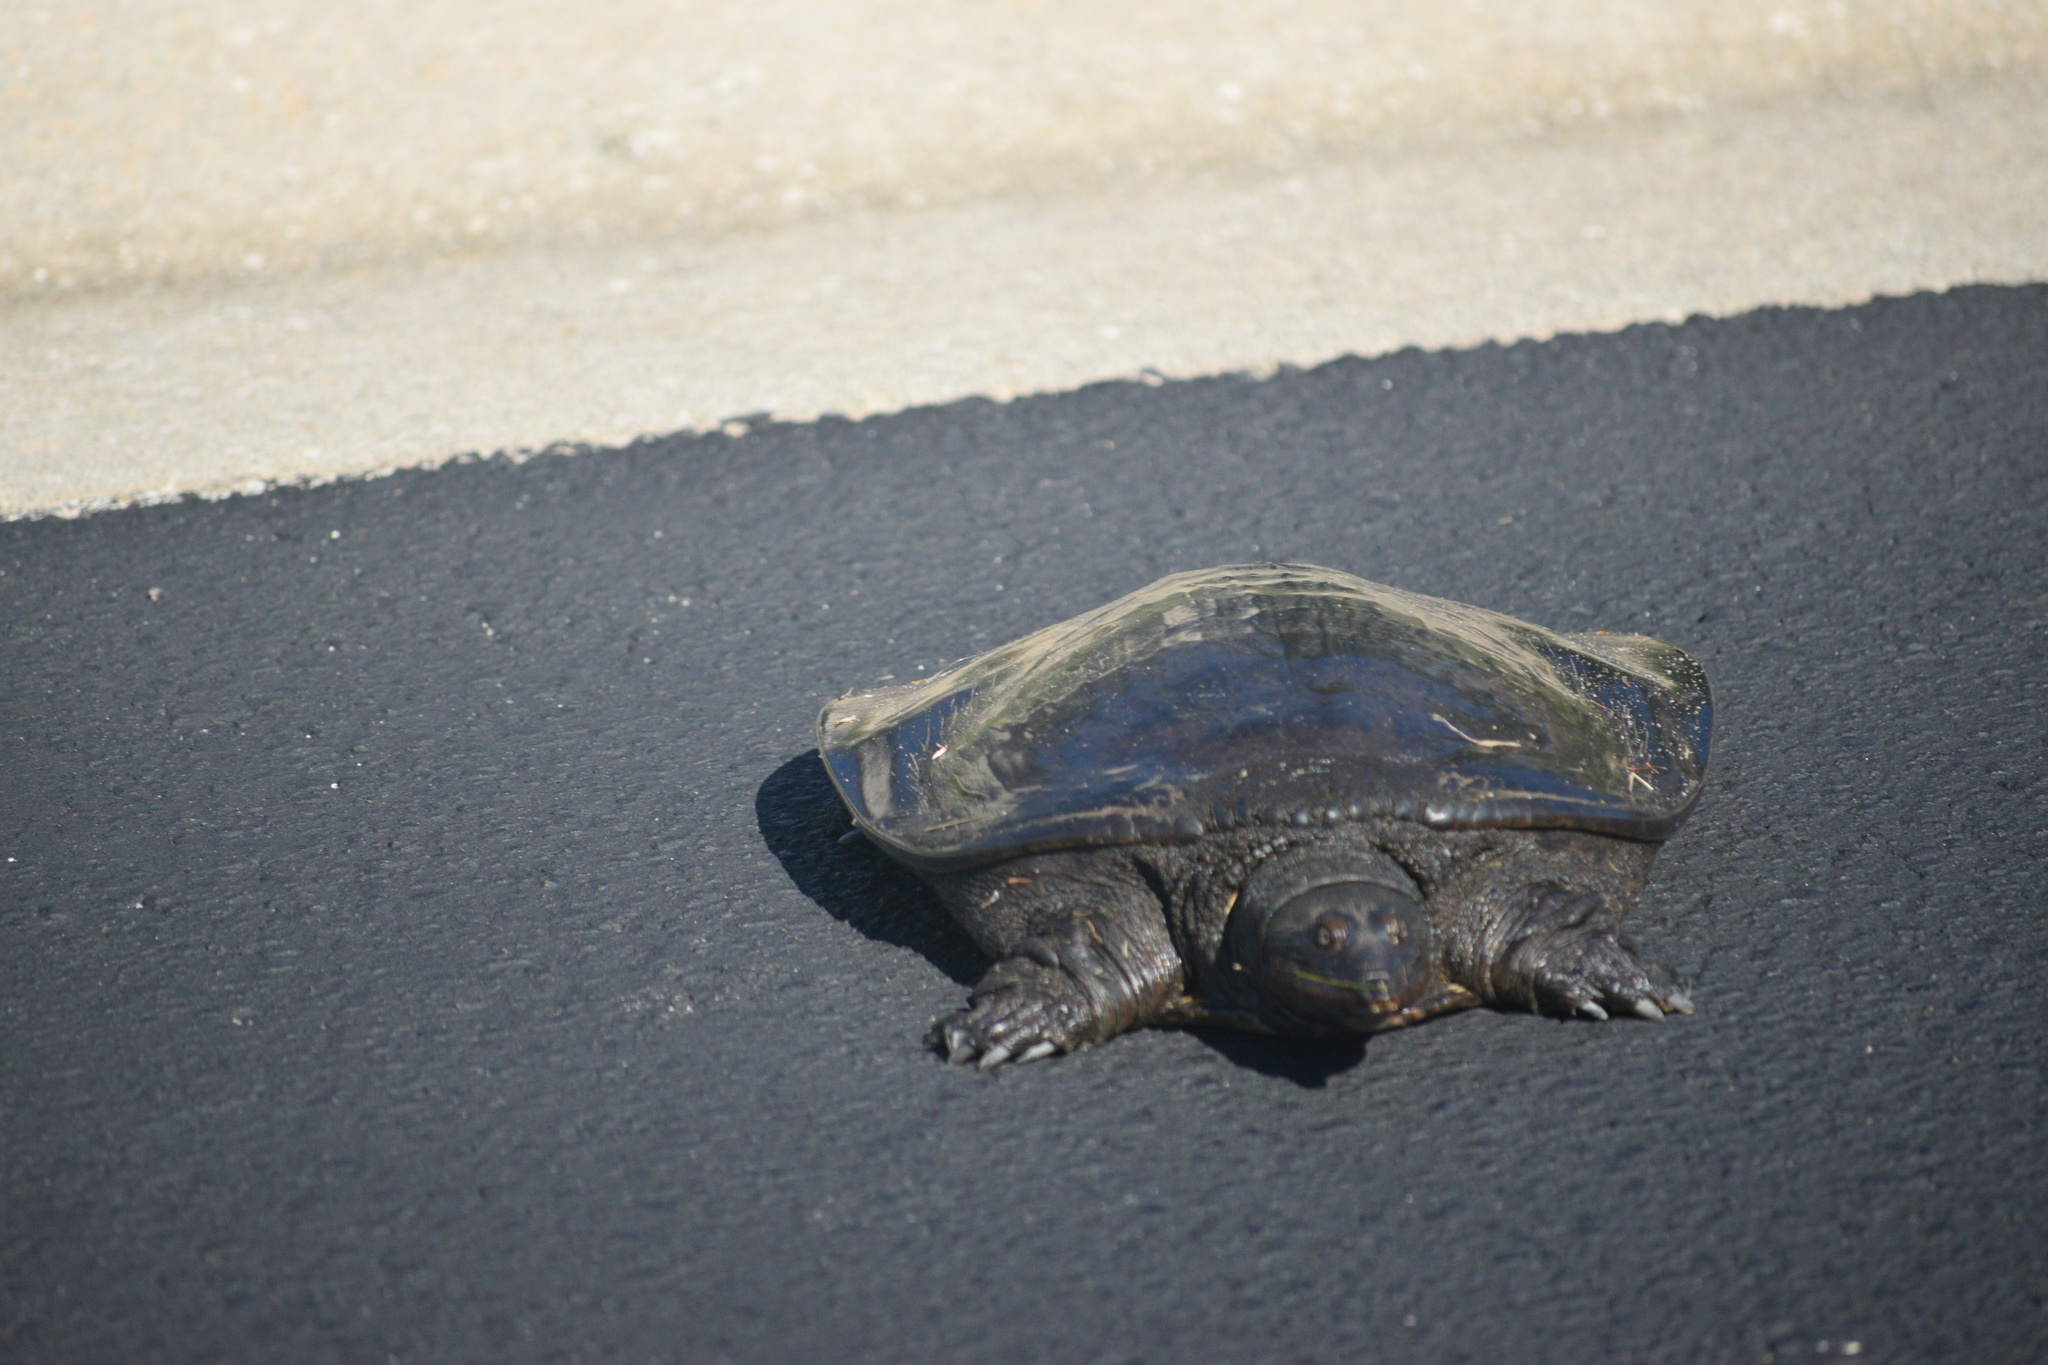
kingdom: Animalia
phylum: Chordata
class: Testudines
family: Trionychidae
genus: Apalone
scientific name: Apalone ferox
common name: Florida softshell turtle
